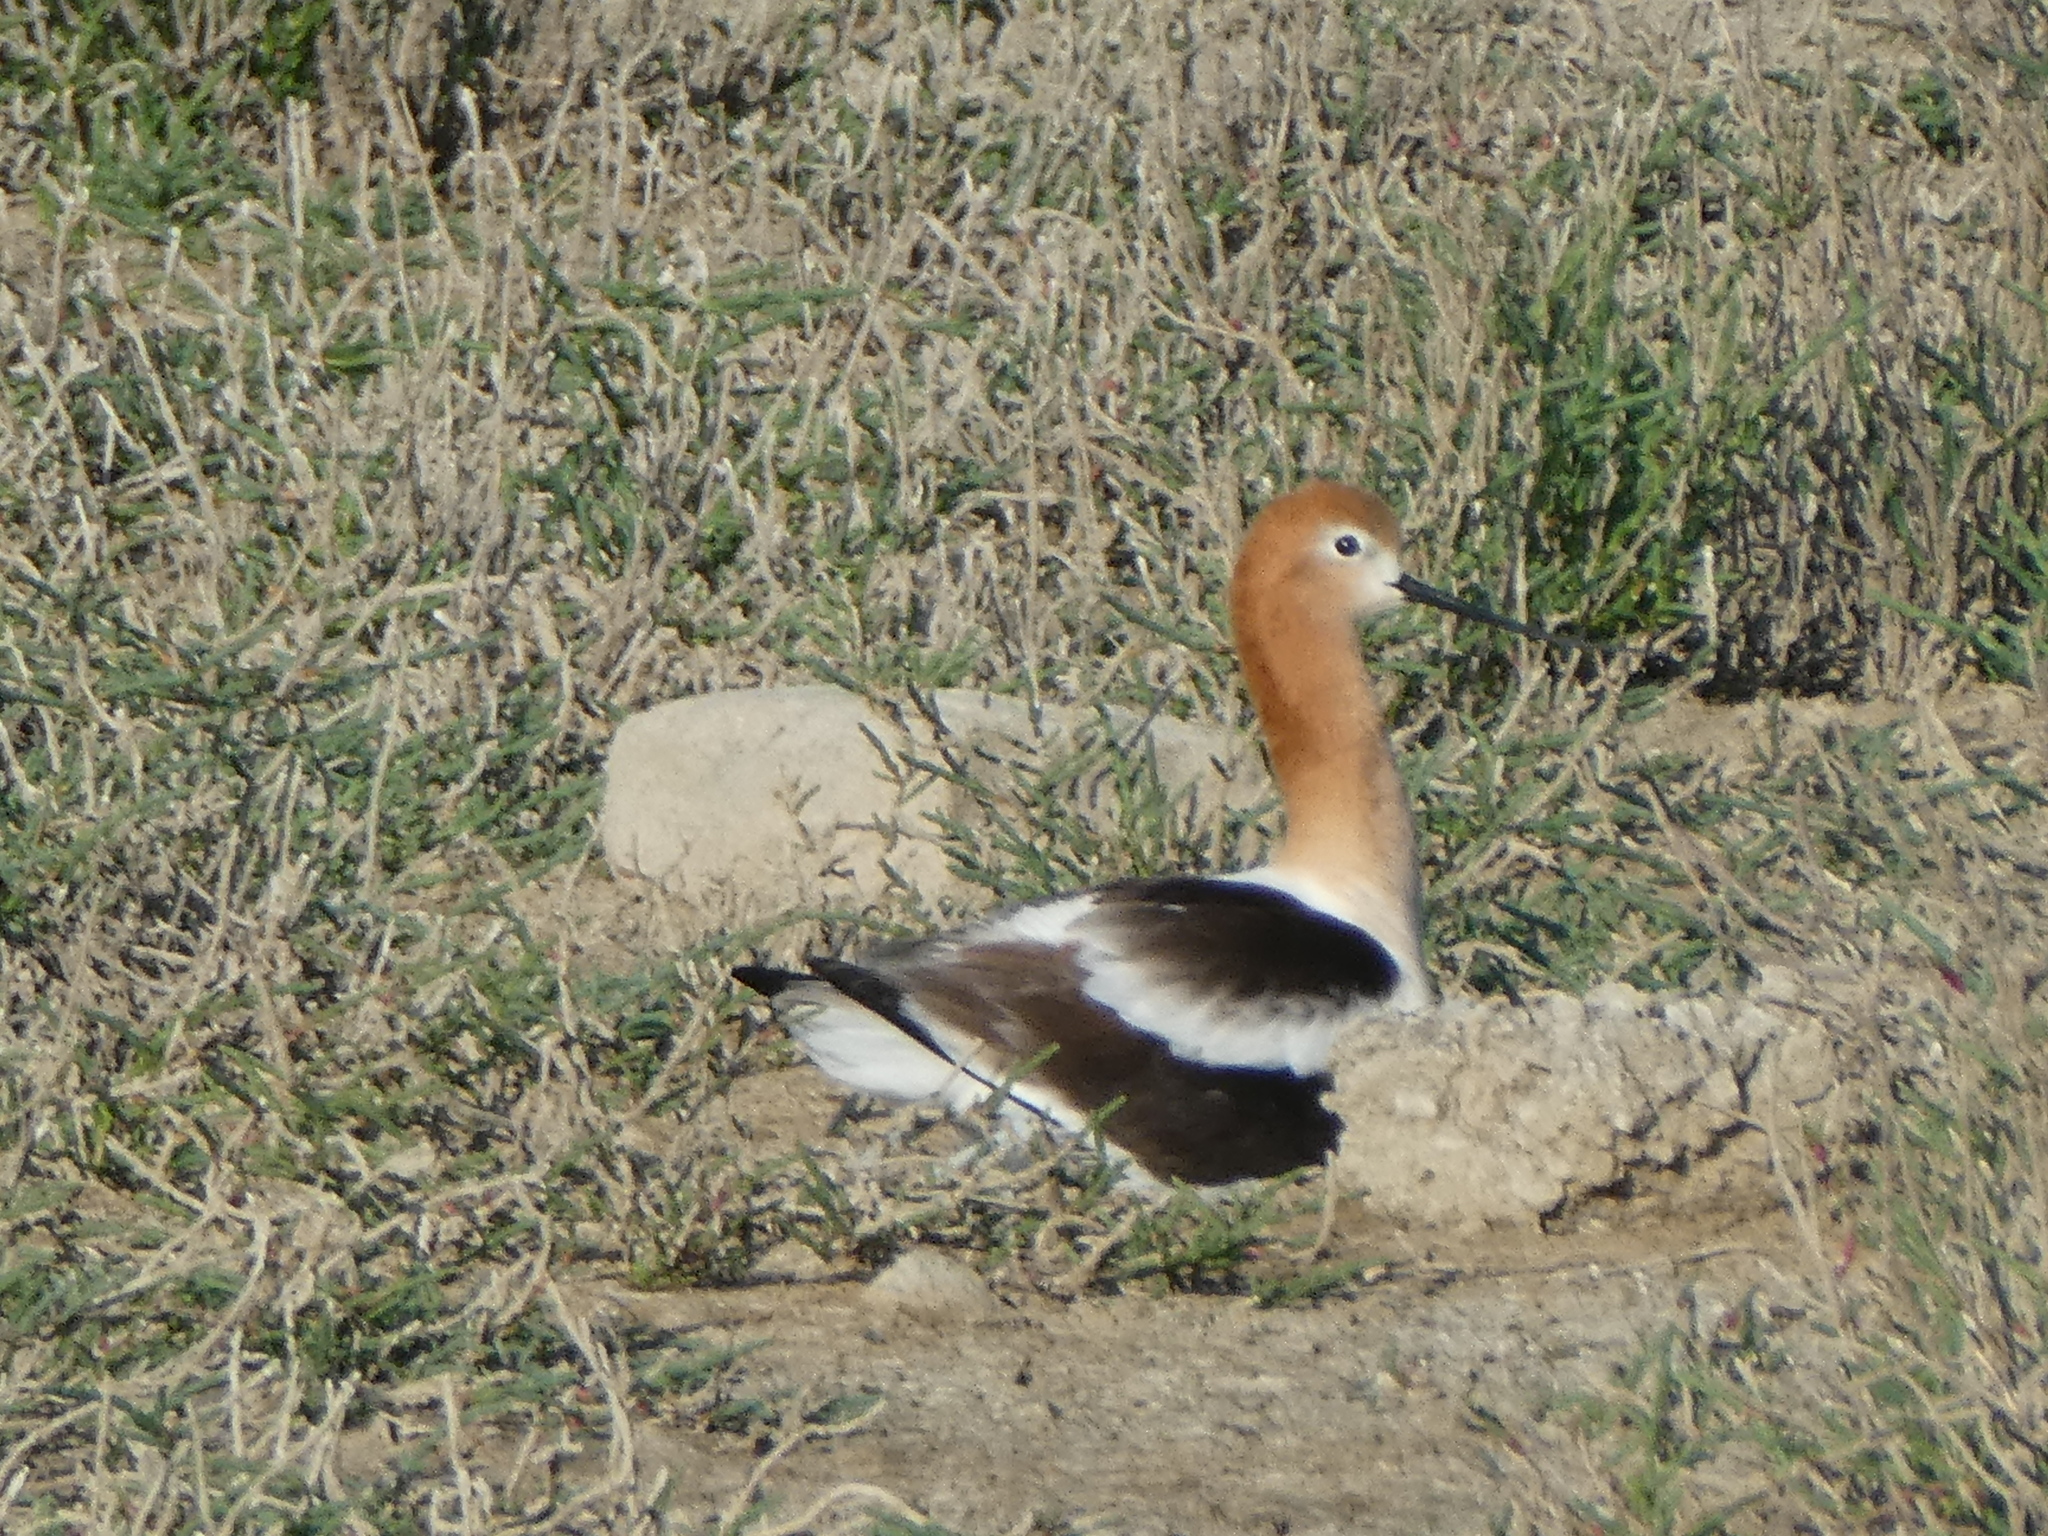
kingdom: Animalia
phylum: Chordata
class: Aves
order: Charadriiformes
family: Recurvirostridae
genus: Recurvirostra
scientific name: Recurvirostra americana
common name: American avocet
